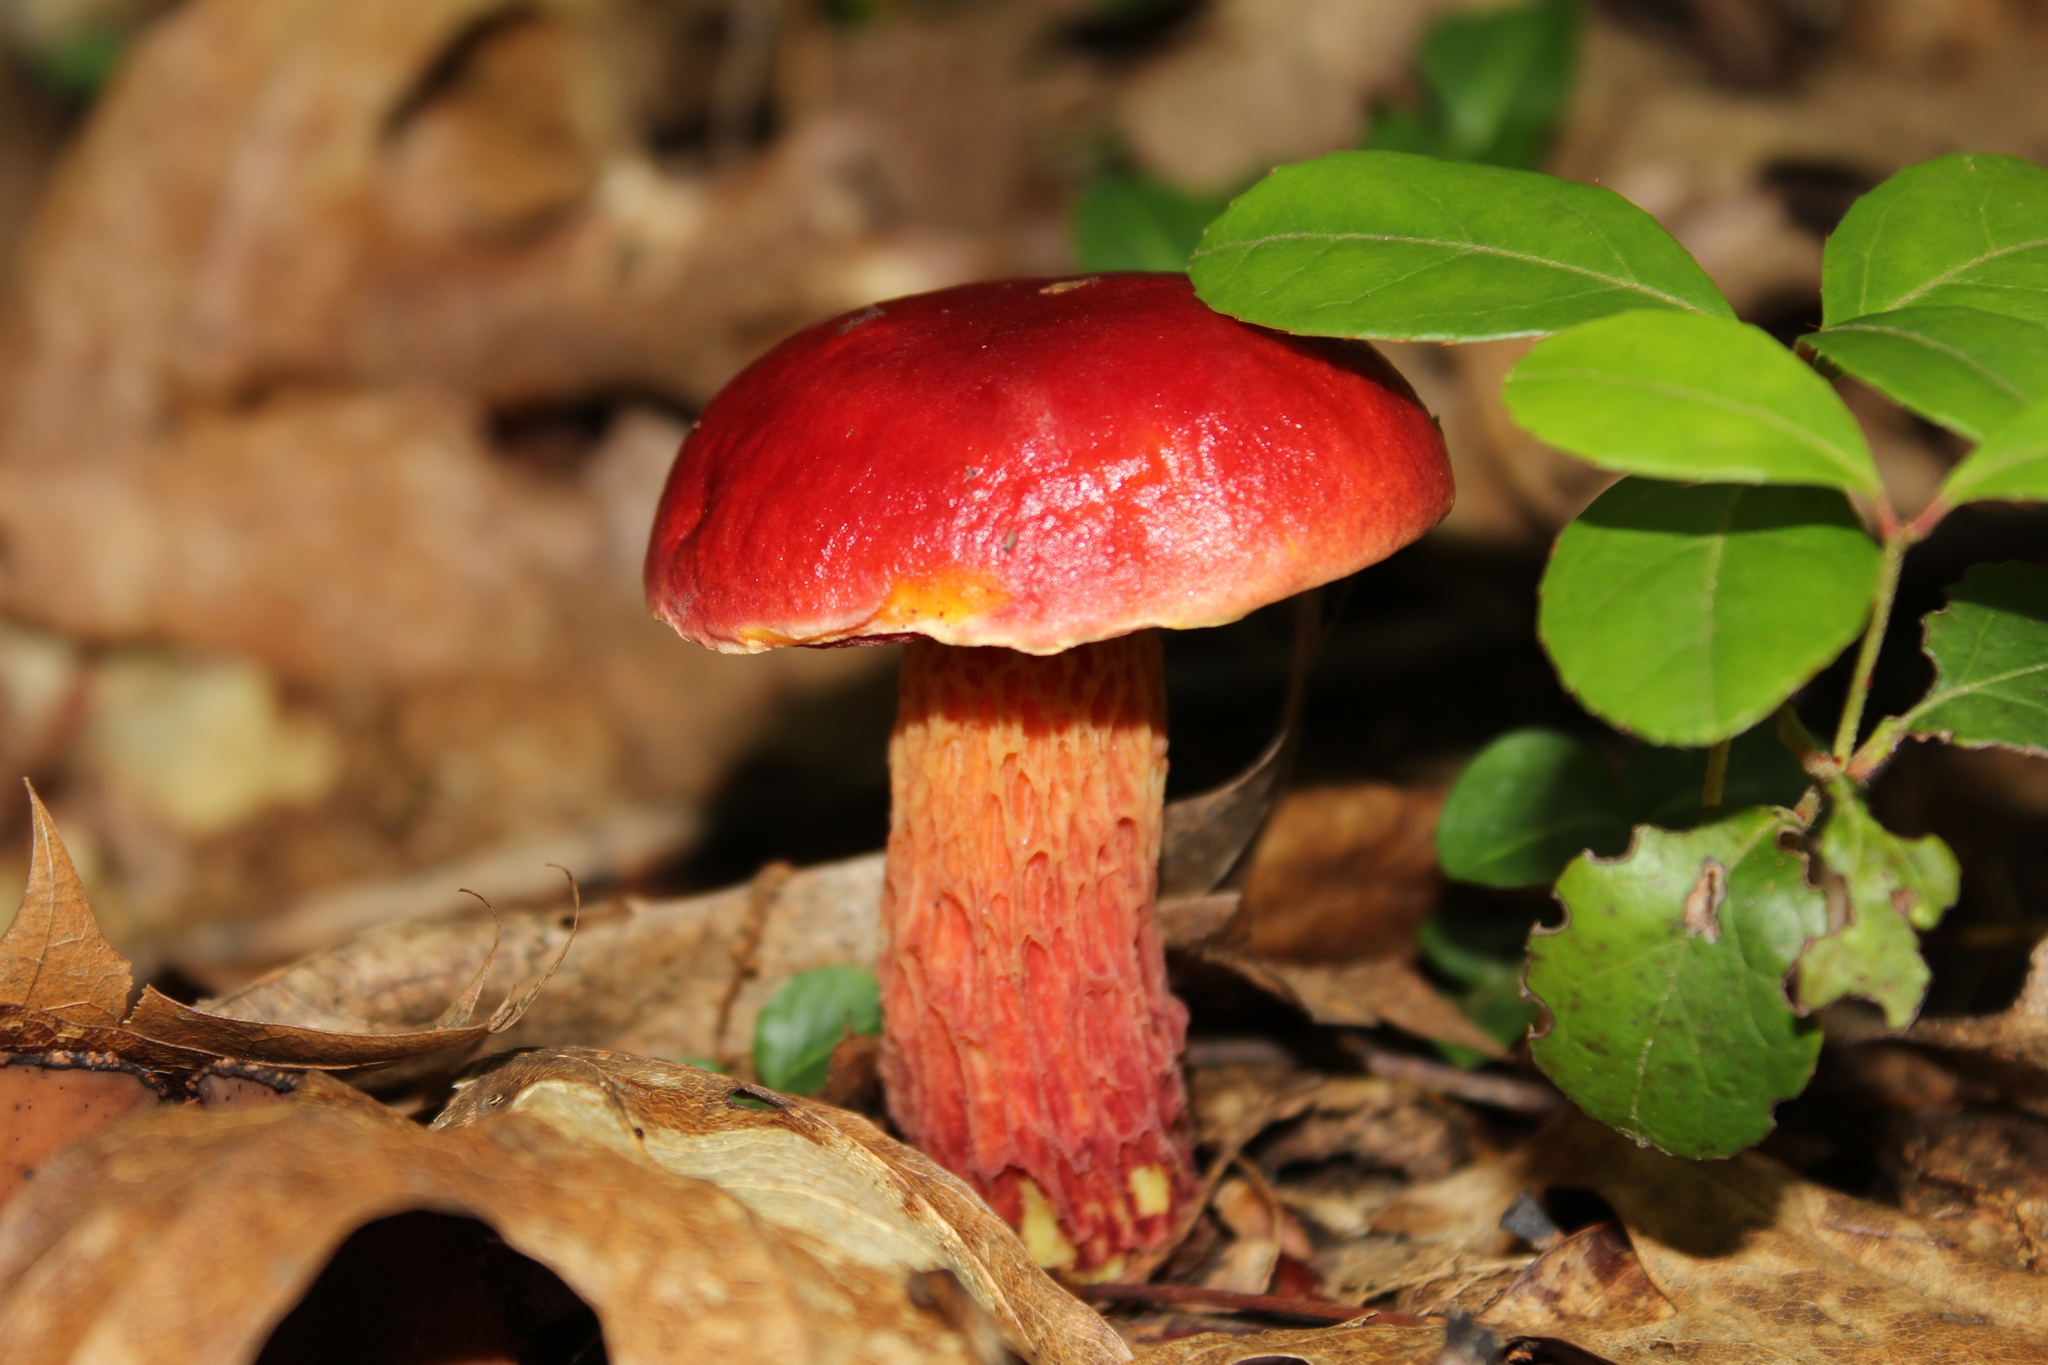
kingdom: Fungi
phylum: Basidiomycota
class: Agaricomycetes
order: Boletales
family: Boletaceae
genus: Butyriboletus
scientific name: Butyriboletus frostii
